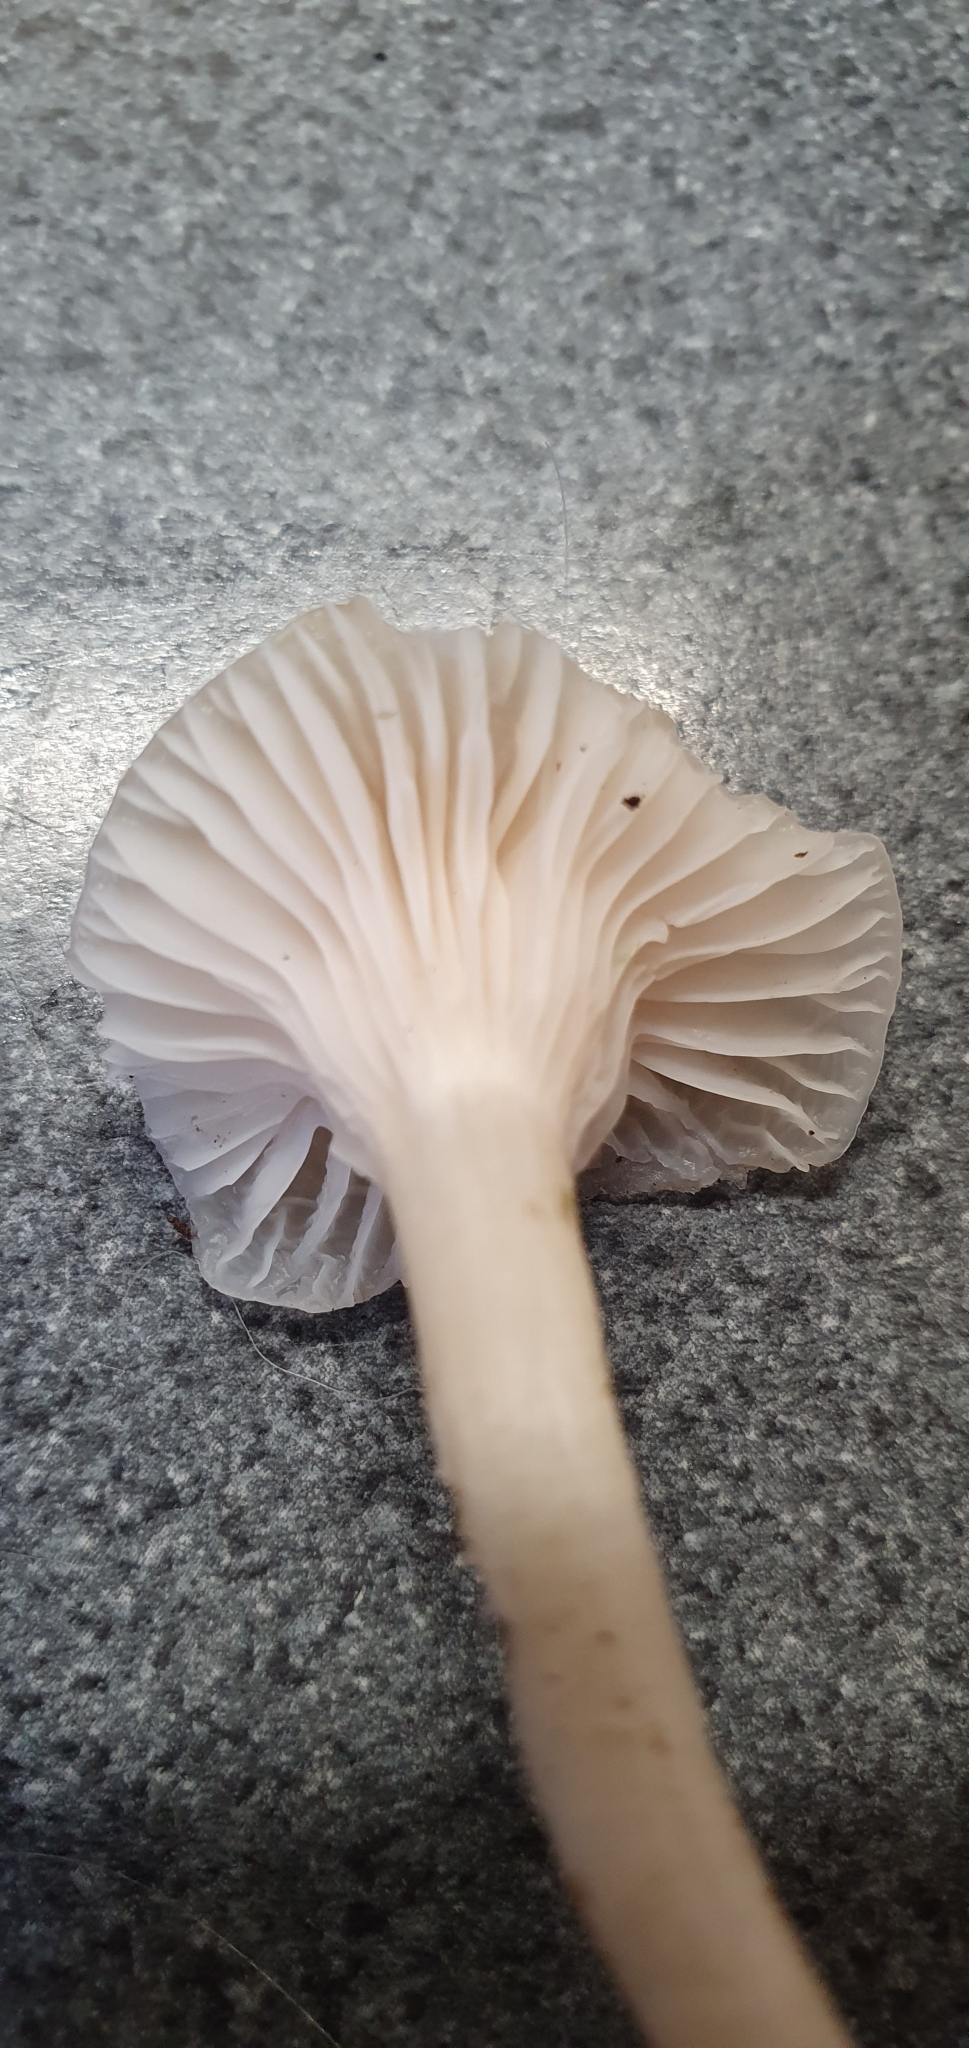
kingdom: Fungi
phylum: Basidiomycota
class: Agaricomycetes
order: Agaricales
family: Hygrophoraceae
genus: Cuphophyllus
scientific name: Cuphophyllus virgineus
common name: Snowy waxcap
